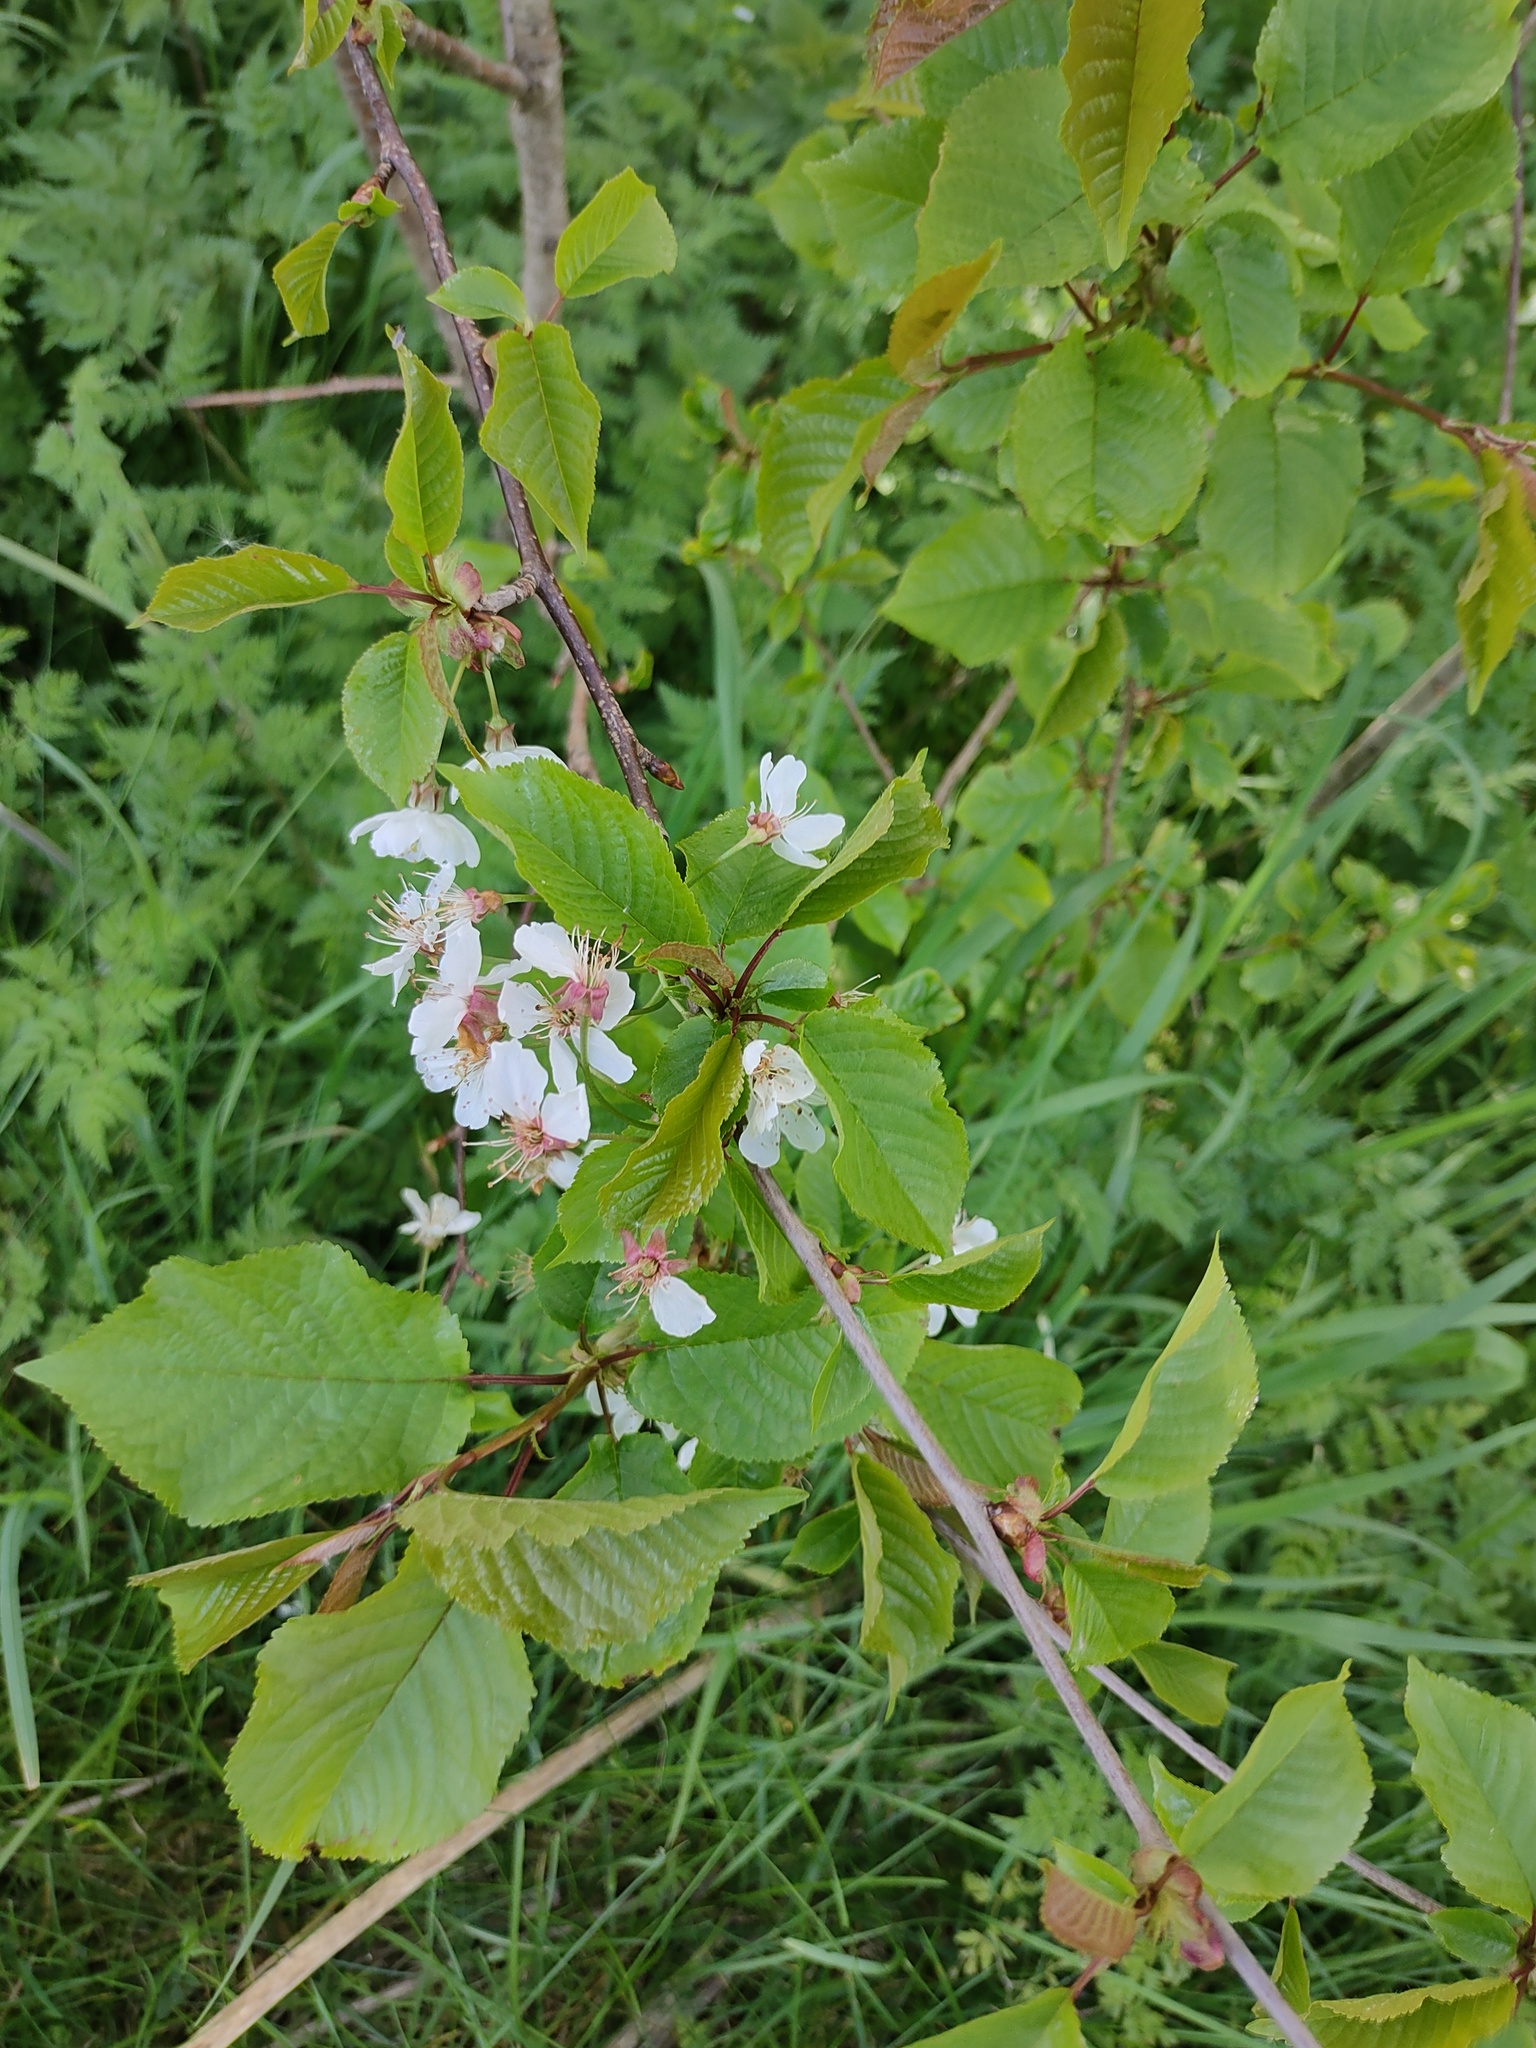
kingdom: Plantae
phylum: Tracheophyta
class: Magnoliopsida
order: Rosales
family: Rosaceae
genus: Prunus
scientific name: Prunus avium
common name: Sweet cherry
